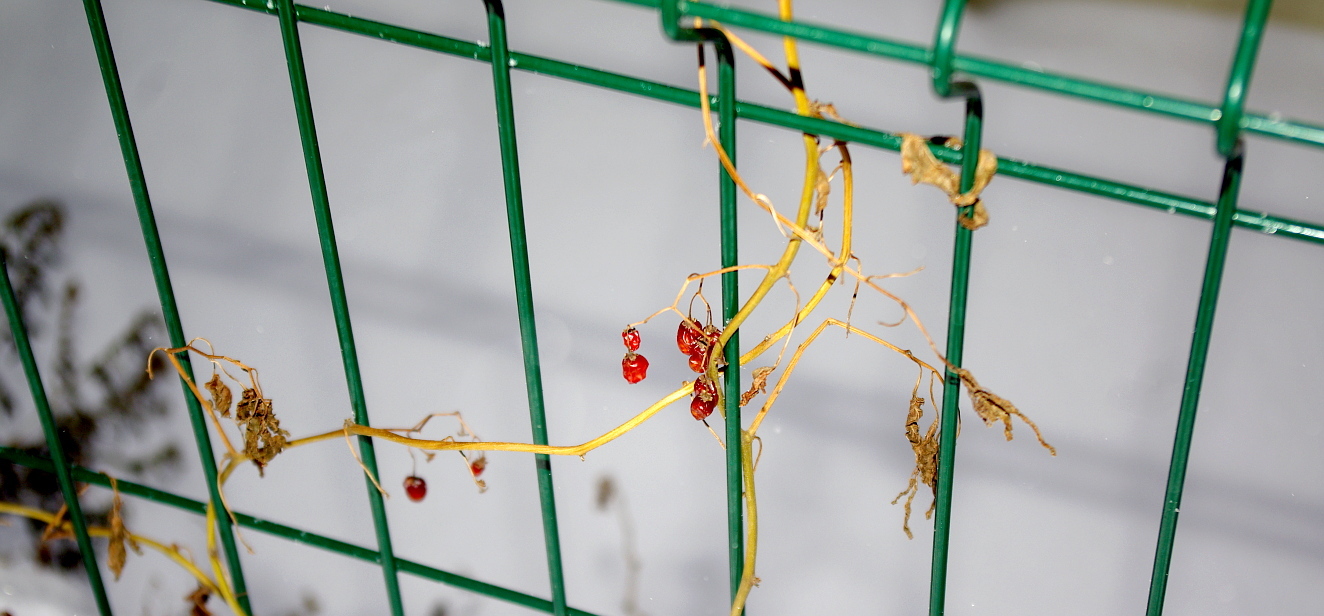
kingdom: Plantae
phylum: Tracheophyta
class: Magnoliopsida
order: Solanales
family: Solanaceae
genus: Solanum
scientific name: Solanum dulcamara
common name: Climbing nightshade
